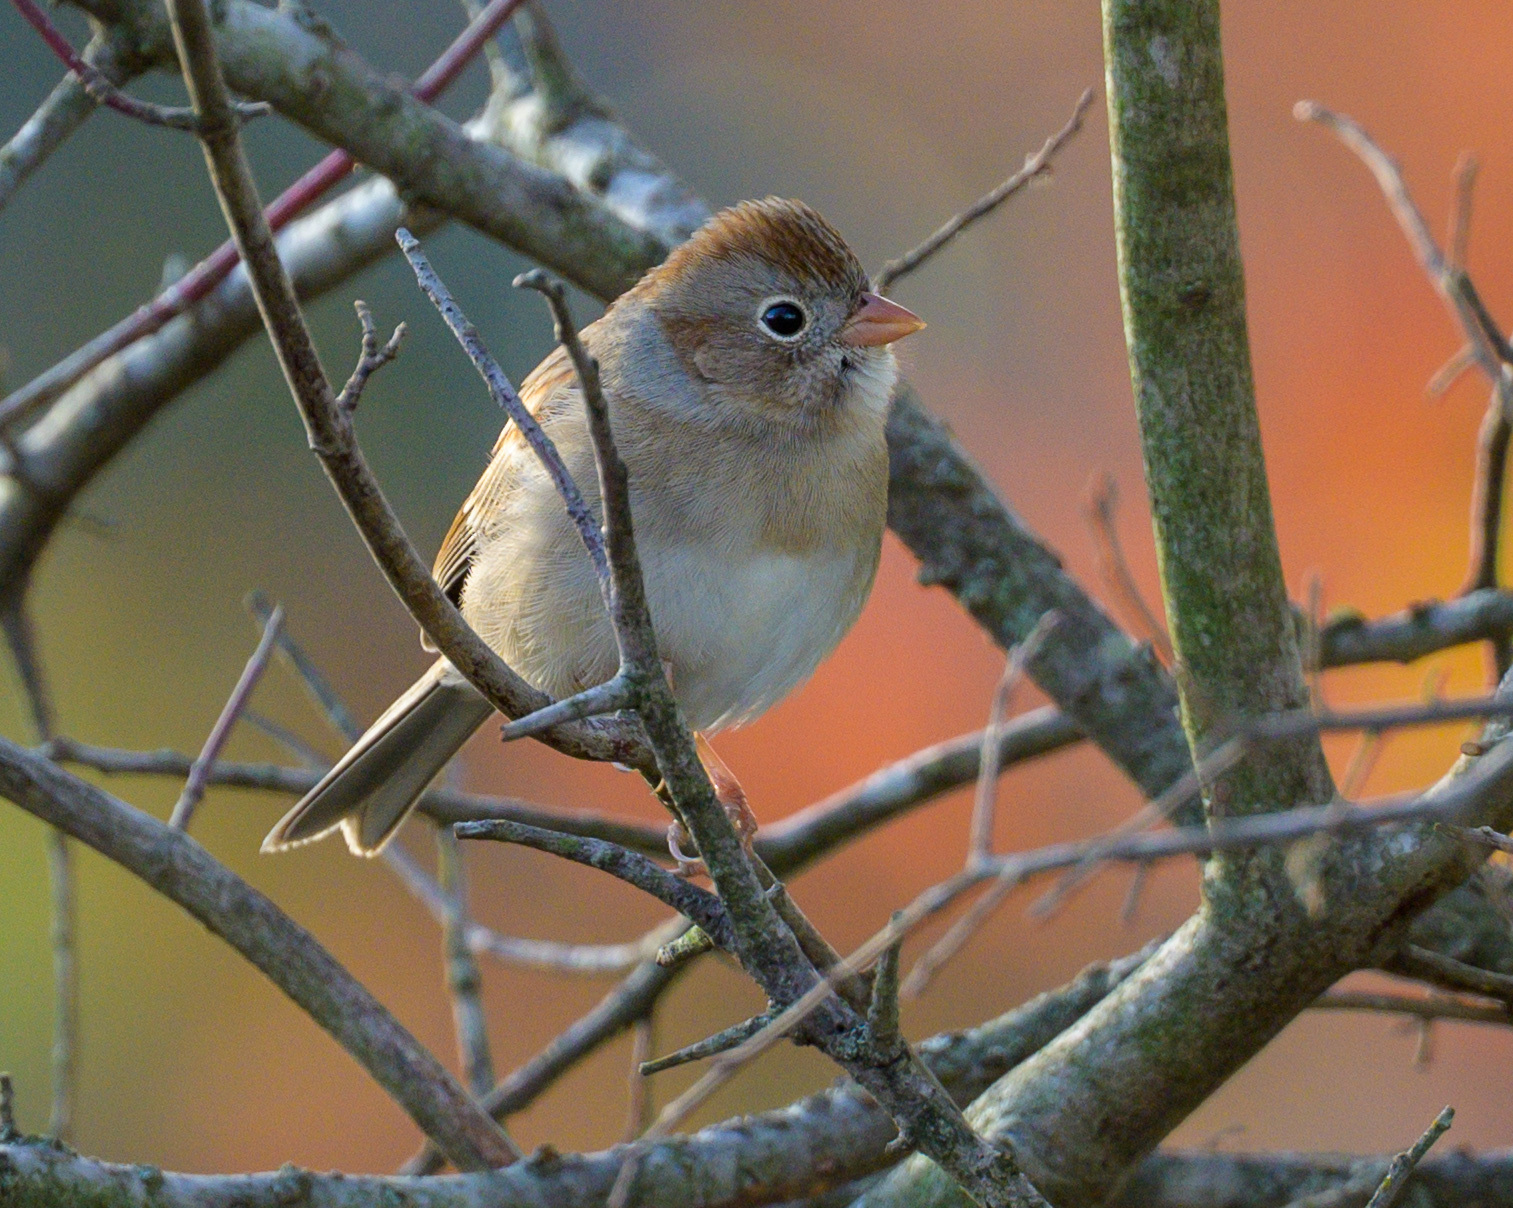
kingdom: Animalia
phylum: Chordata
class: Aves
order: Passeriformes
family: Passerellidae
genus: Spizella
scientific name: Spizella pusilla
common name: Field sparrow
